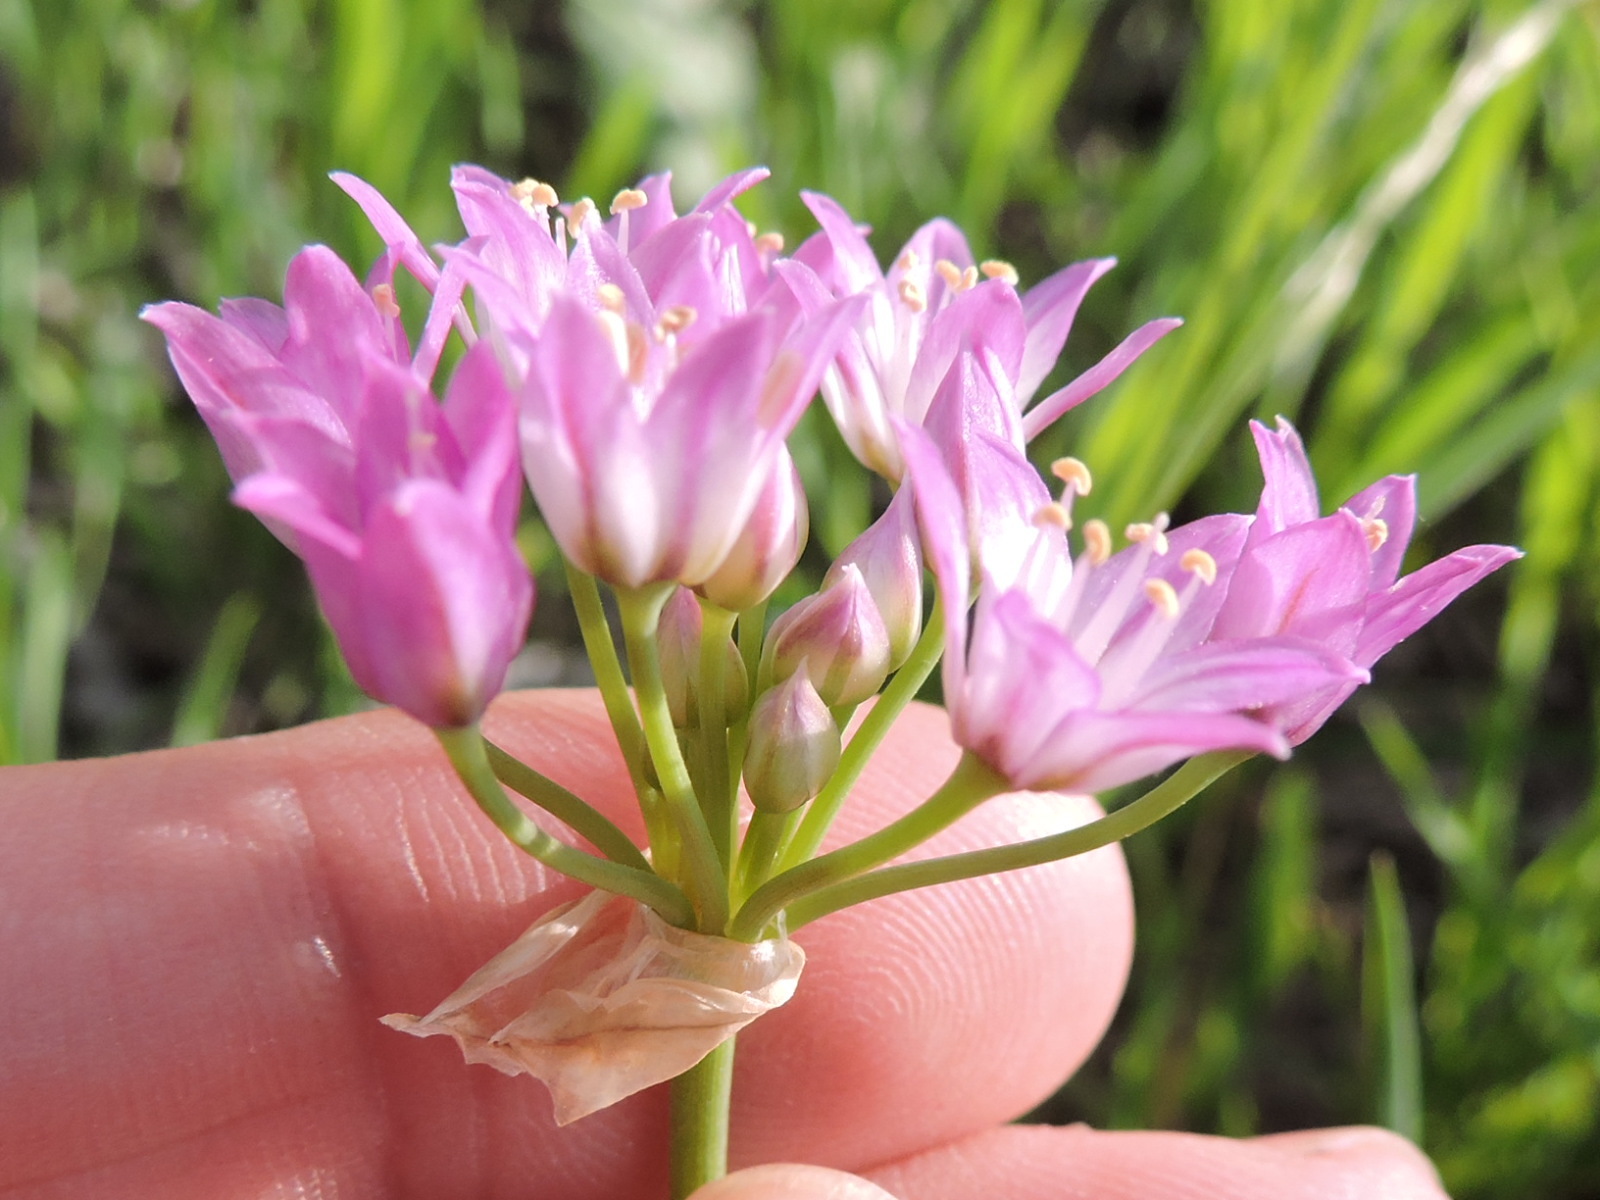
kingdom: Plantae
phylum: Tracheophyta
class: Liliopsida
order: Asparagales
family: Amaryllidaceae
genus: Allium
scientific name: Allium drummondii
